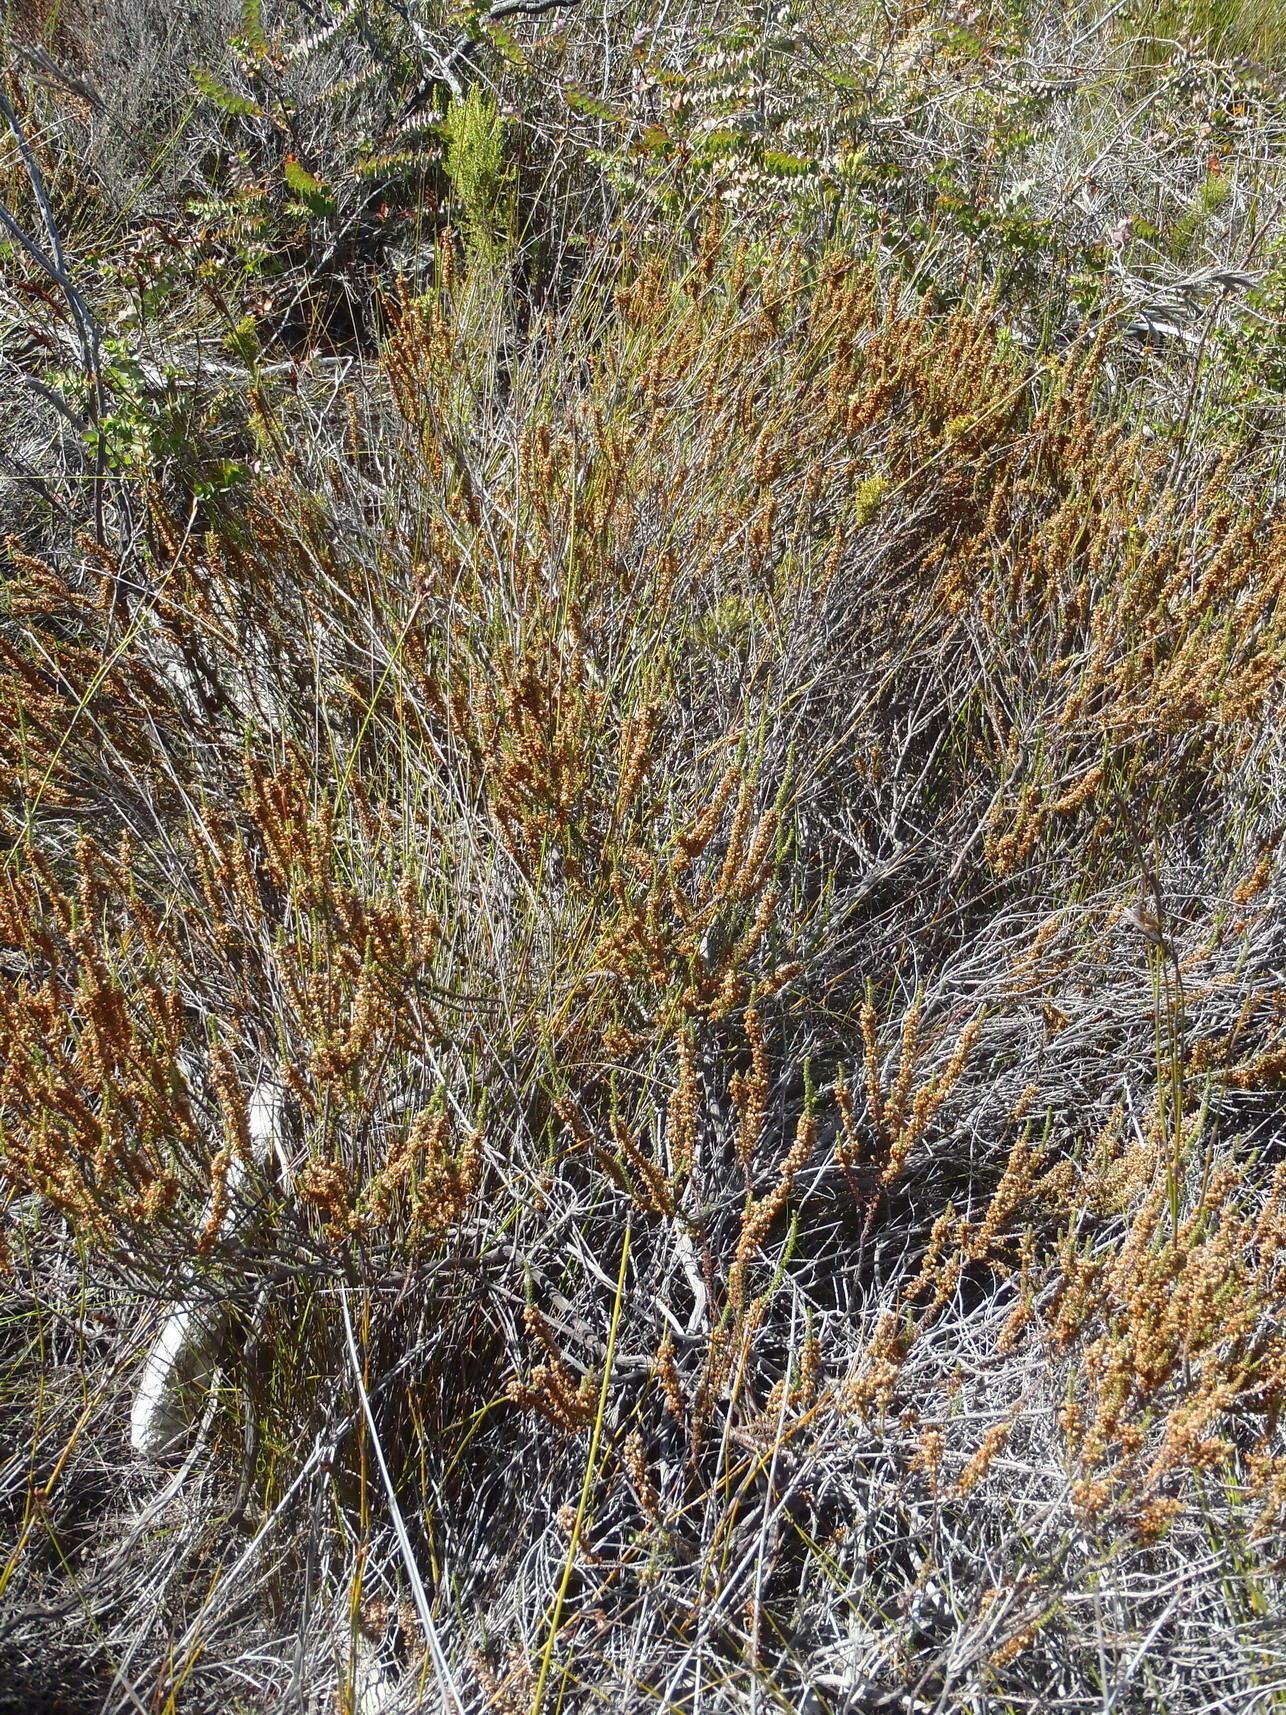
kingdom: Plantae
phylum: Tracheophyta
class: Magnoliopsida
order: Ericales
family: Ericaceae
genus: Erica
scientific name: Erica deflexa
